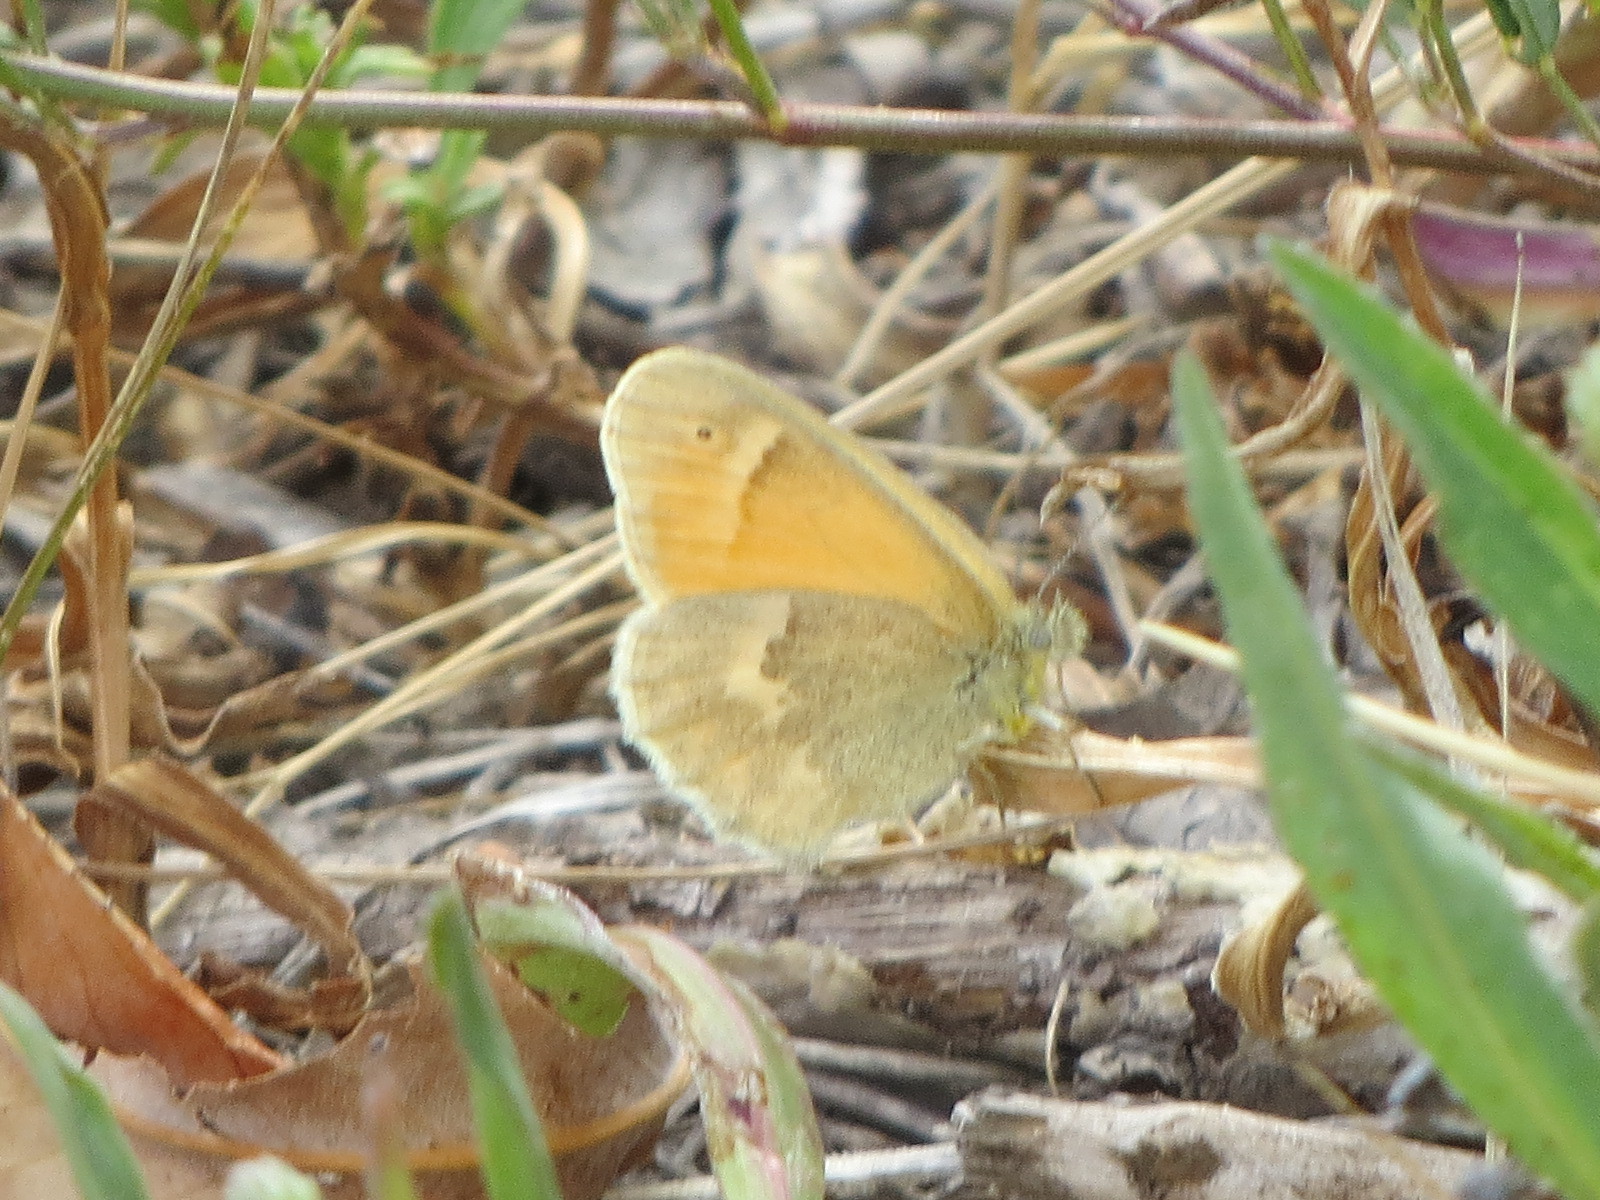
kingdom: Animalia
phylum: Arthropoda
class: Insecta
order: Lepidoptera
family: Nymphalidae
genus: Coenonympha
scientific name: Coenonympha california
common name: Common ringlet
